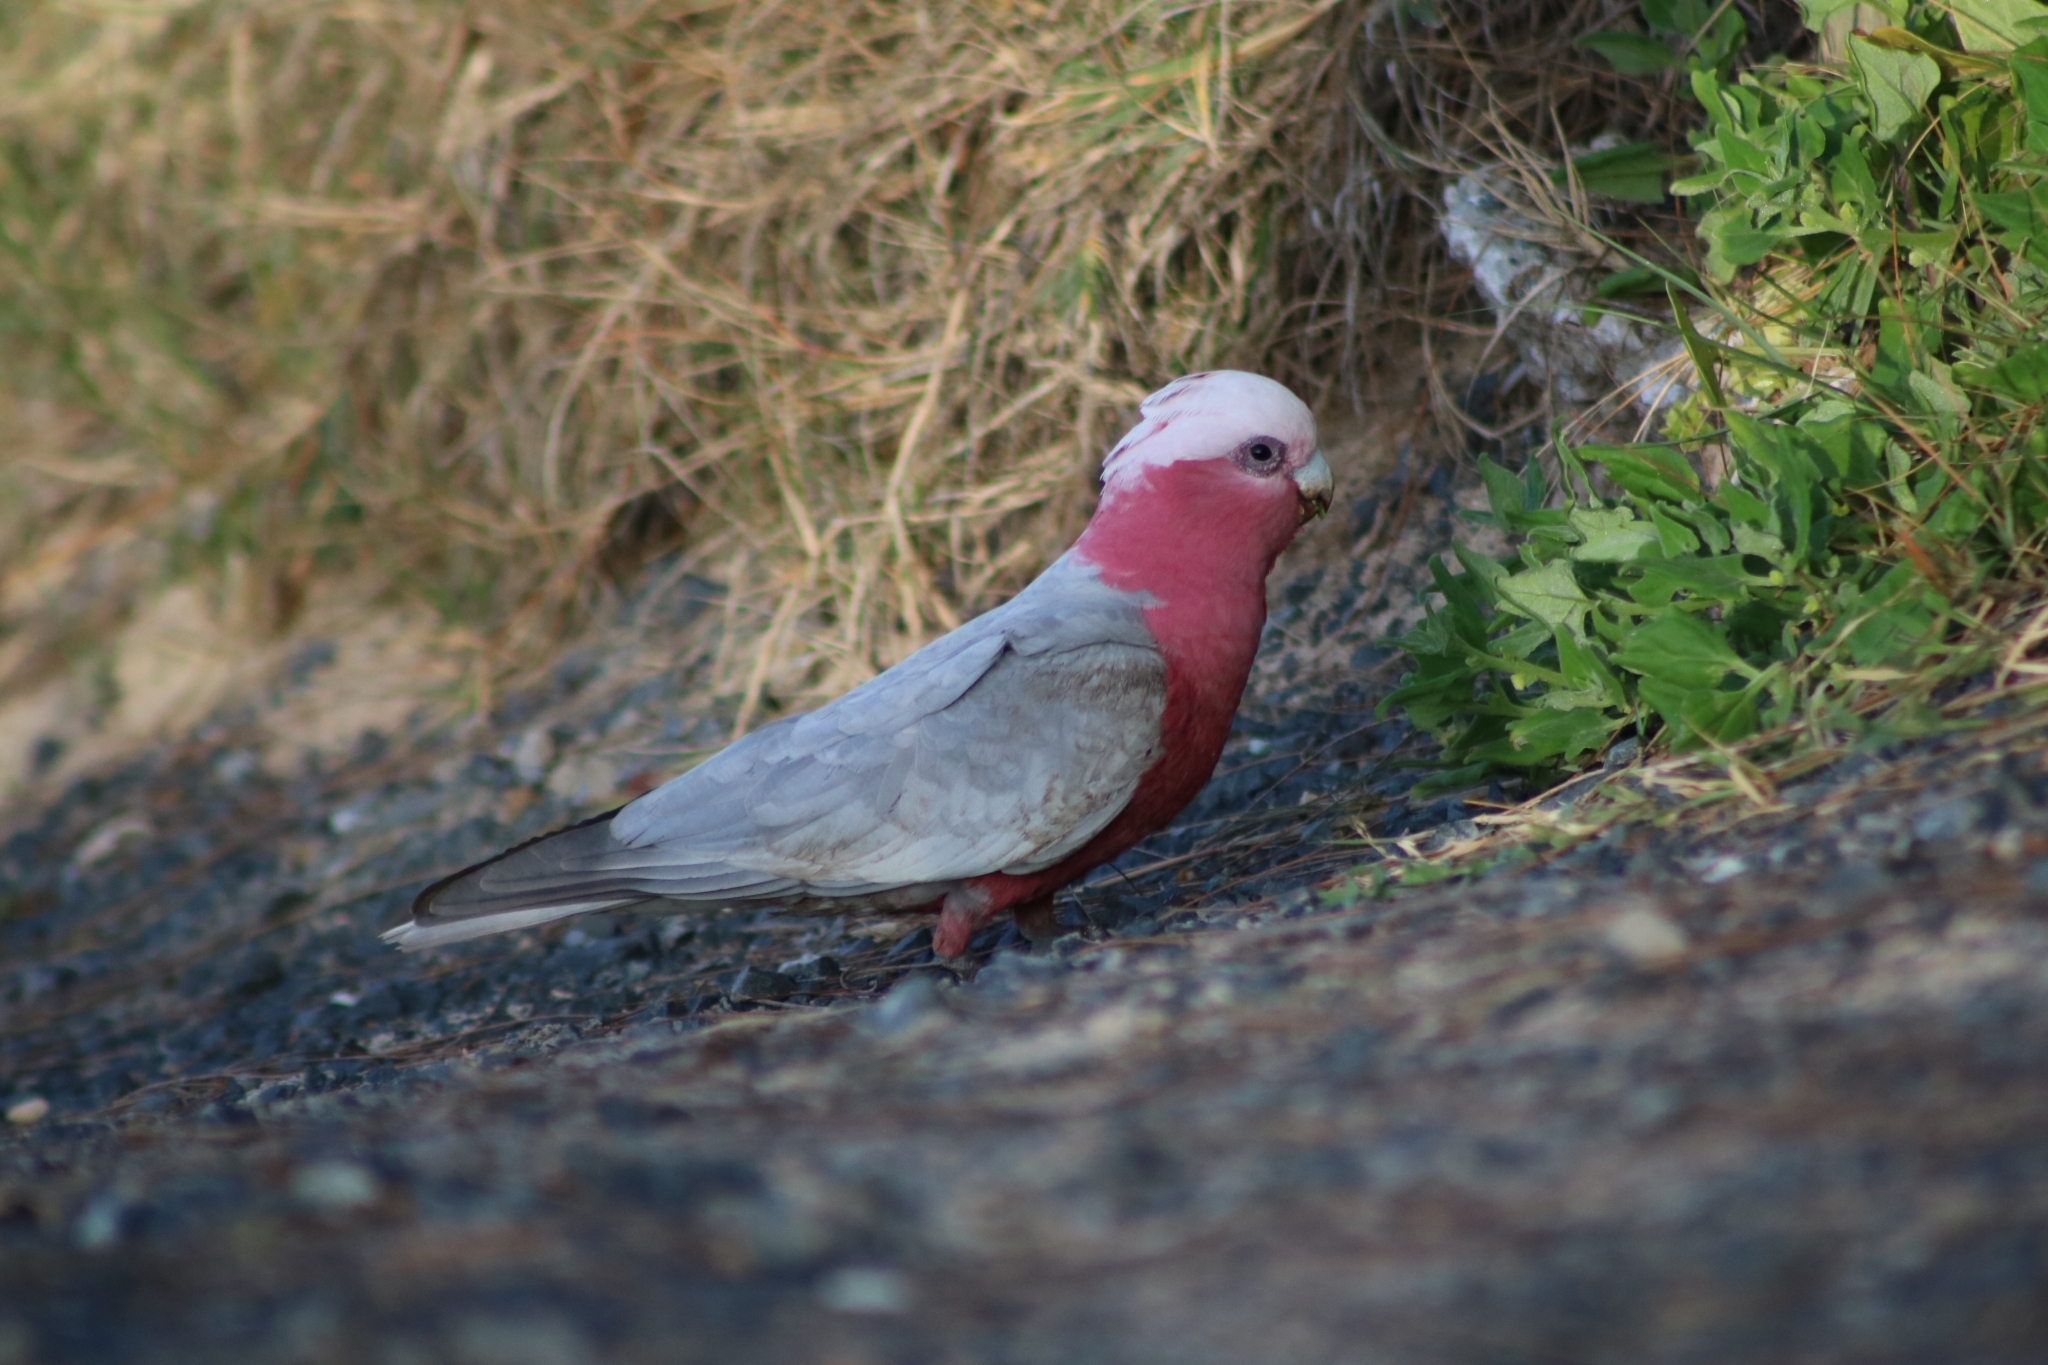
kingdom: Animalia
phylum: Chordata
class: Aves
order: Psittaciformes
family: Psittacidae
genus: Eolophus
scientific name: Eolophus roseicapilla
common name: Galah
